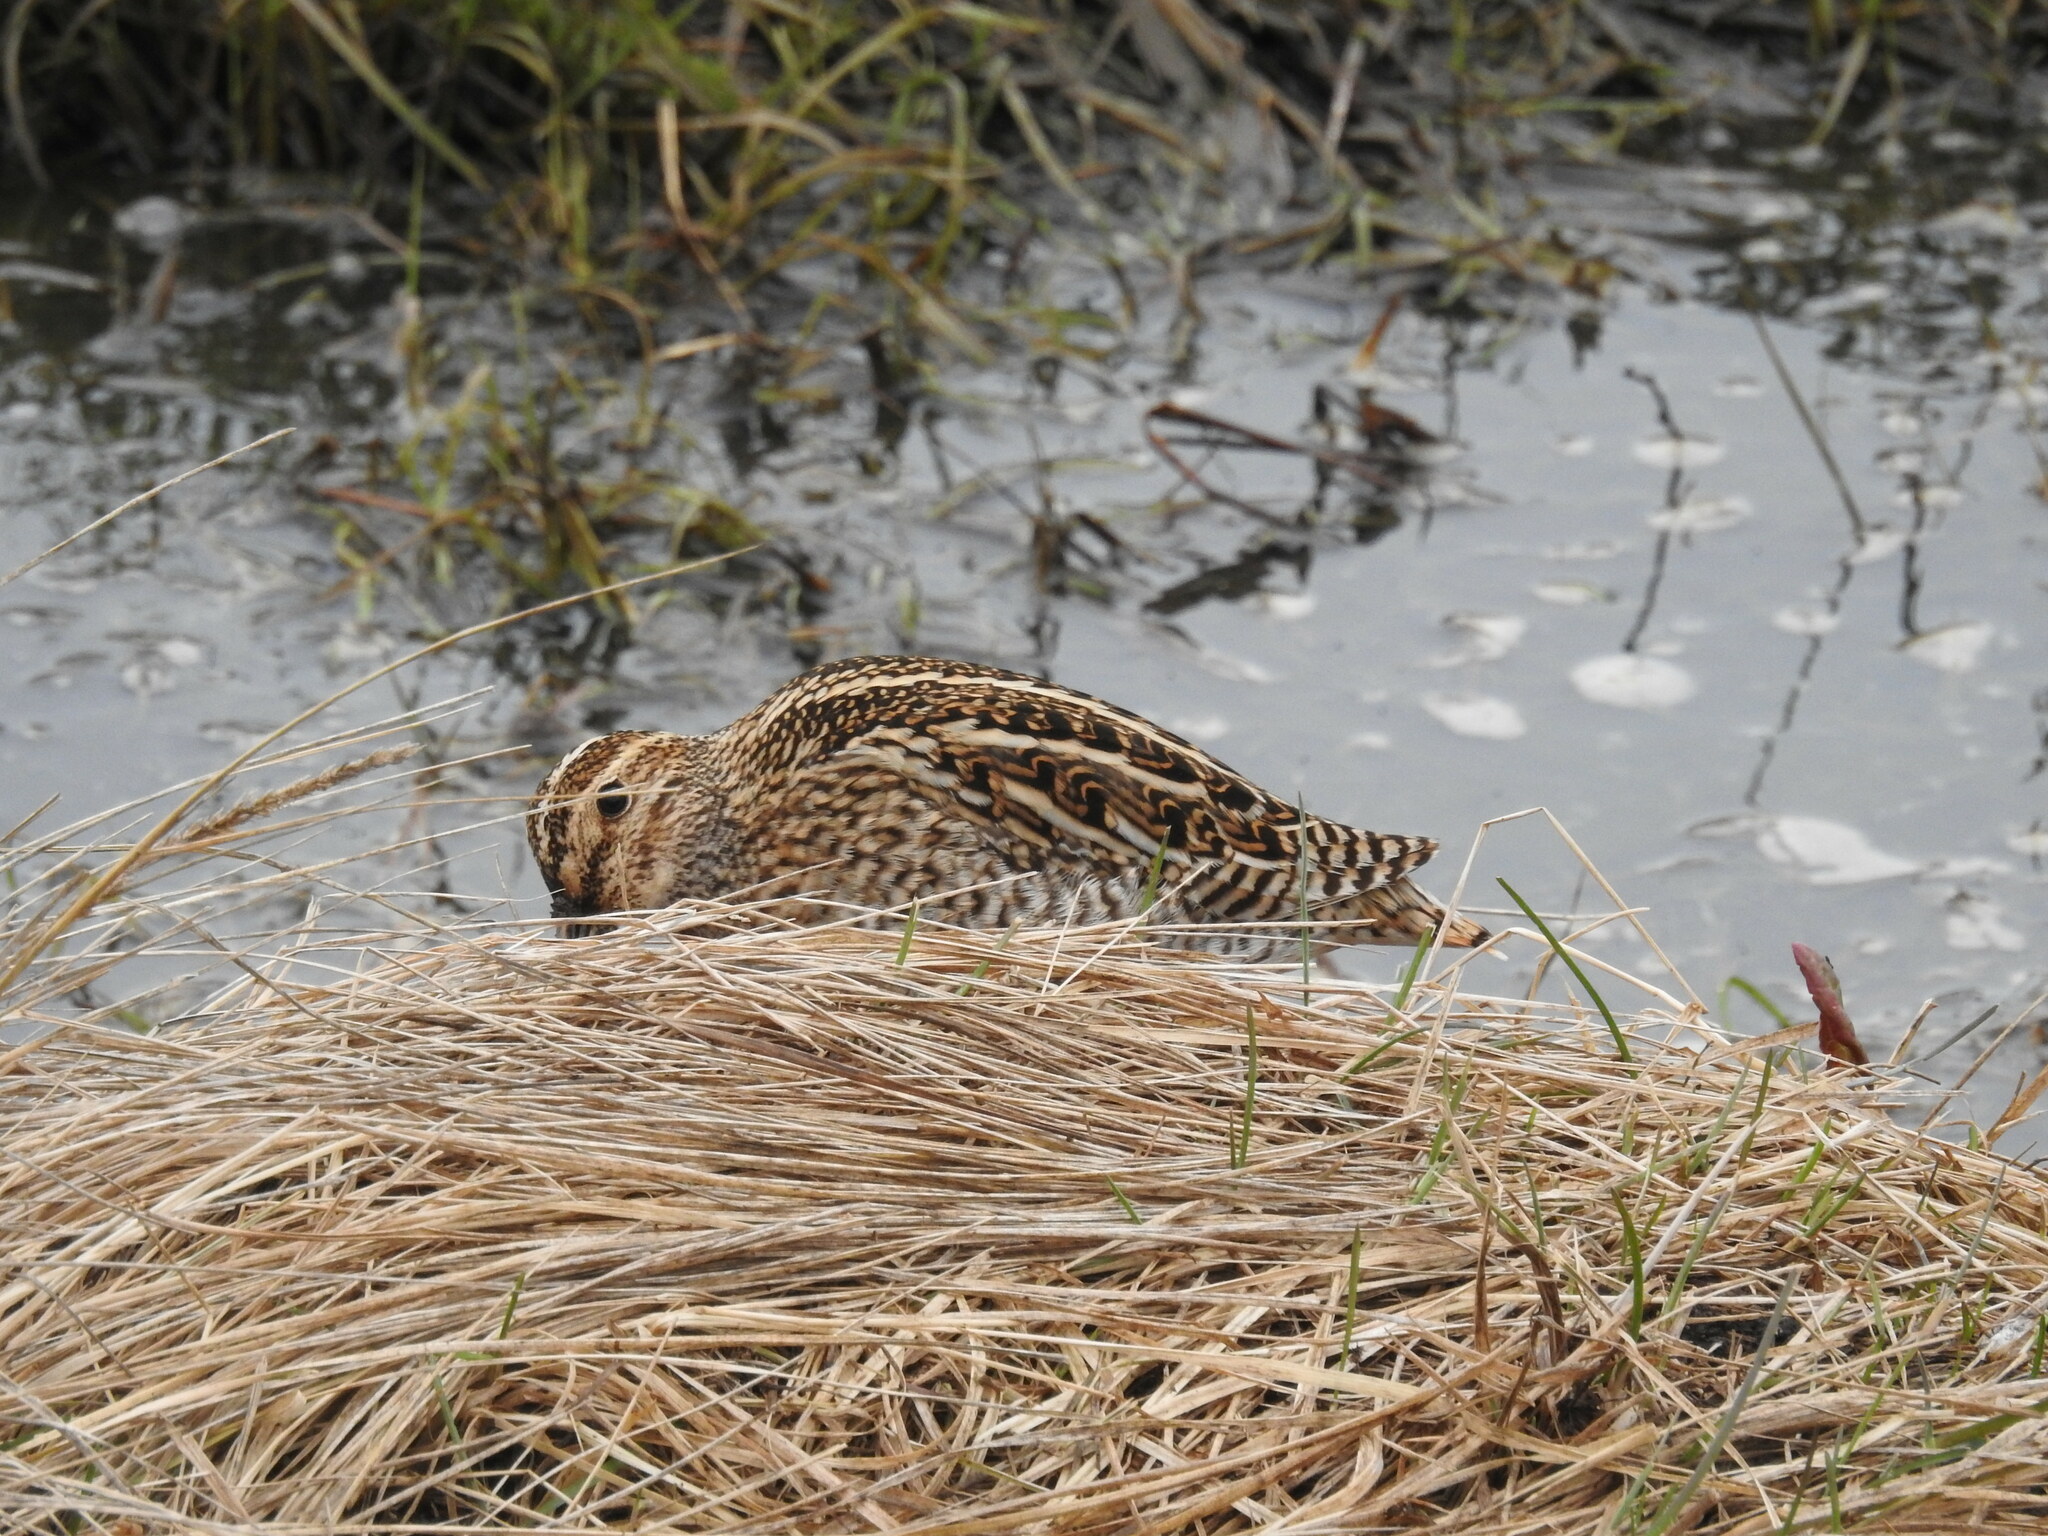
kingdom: Animalia
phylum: Chordata
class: Aves
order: Charadriiformes
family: Scolopacidae
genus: Gallinago
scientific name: Gallinago magellanica
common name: Magellanic snipe
